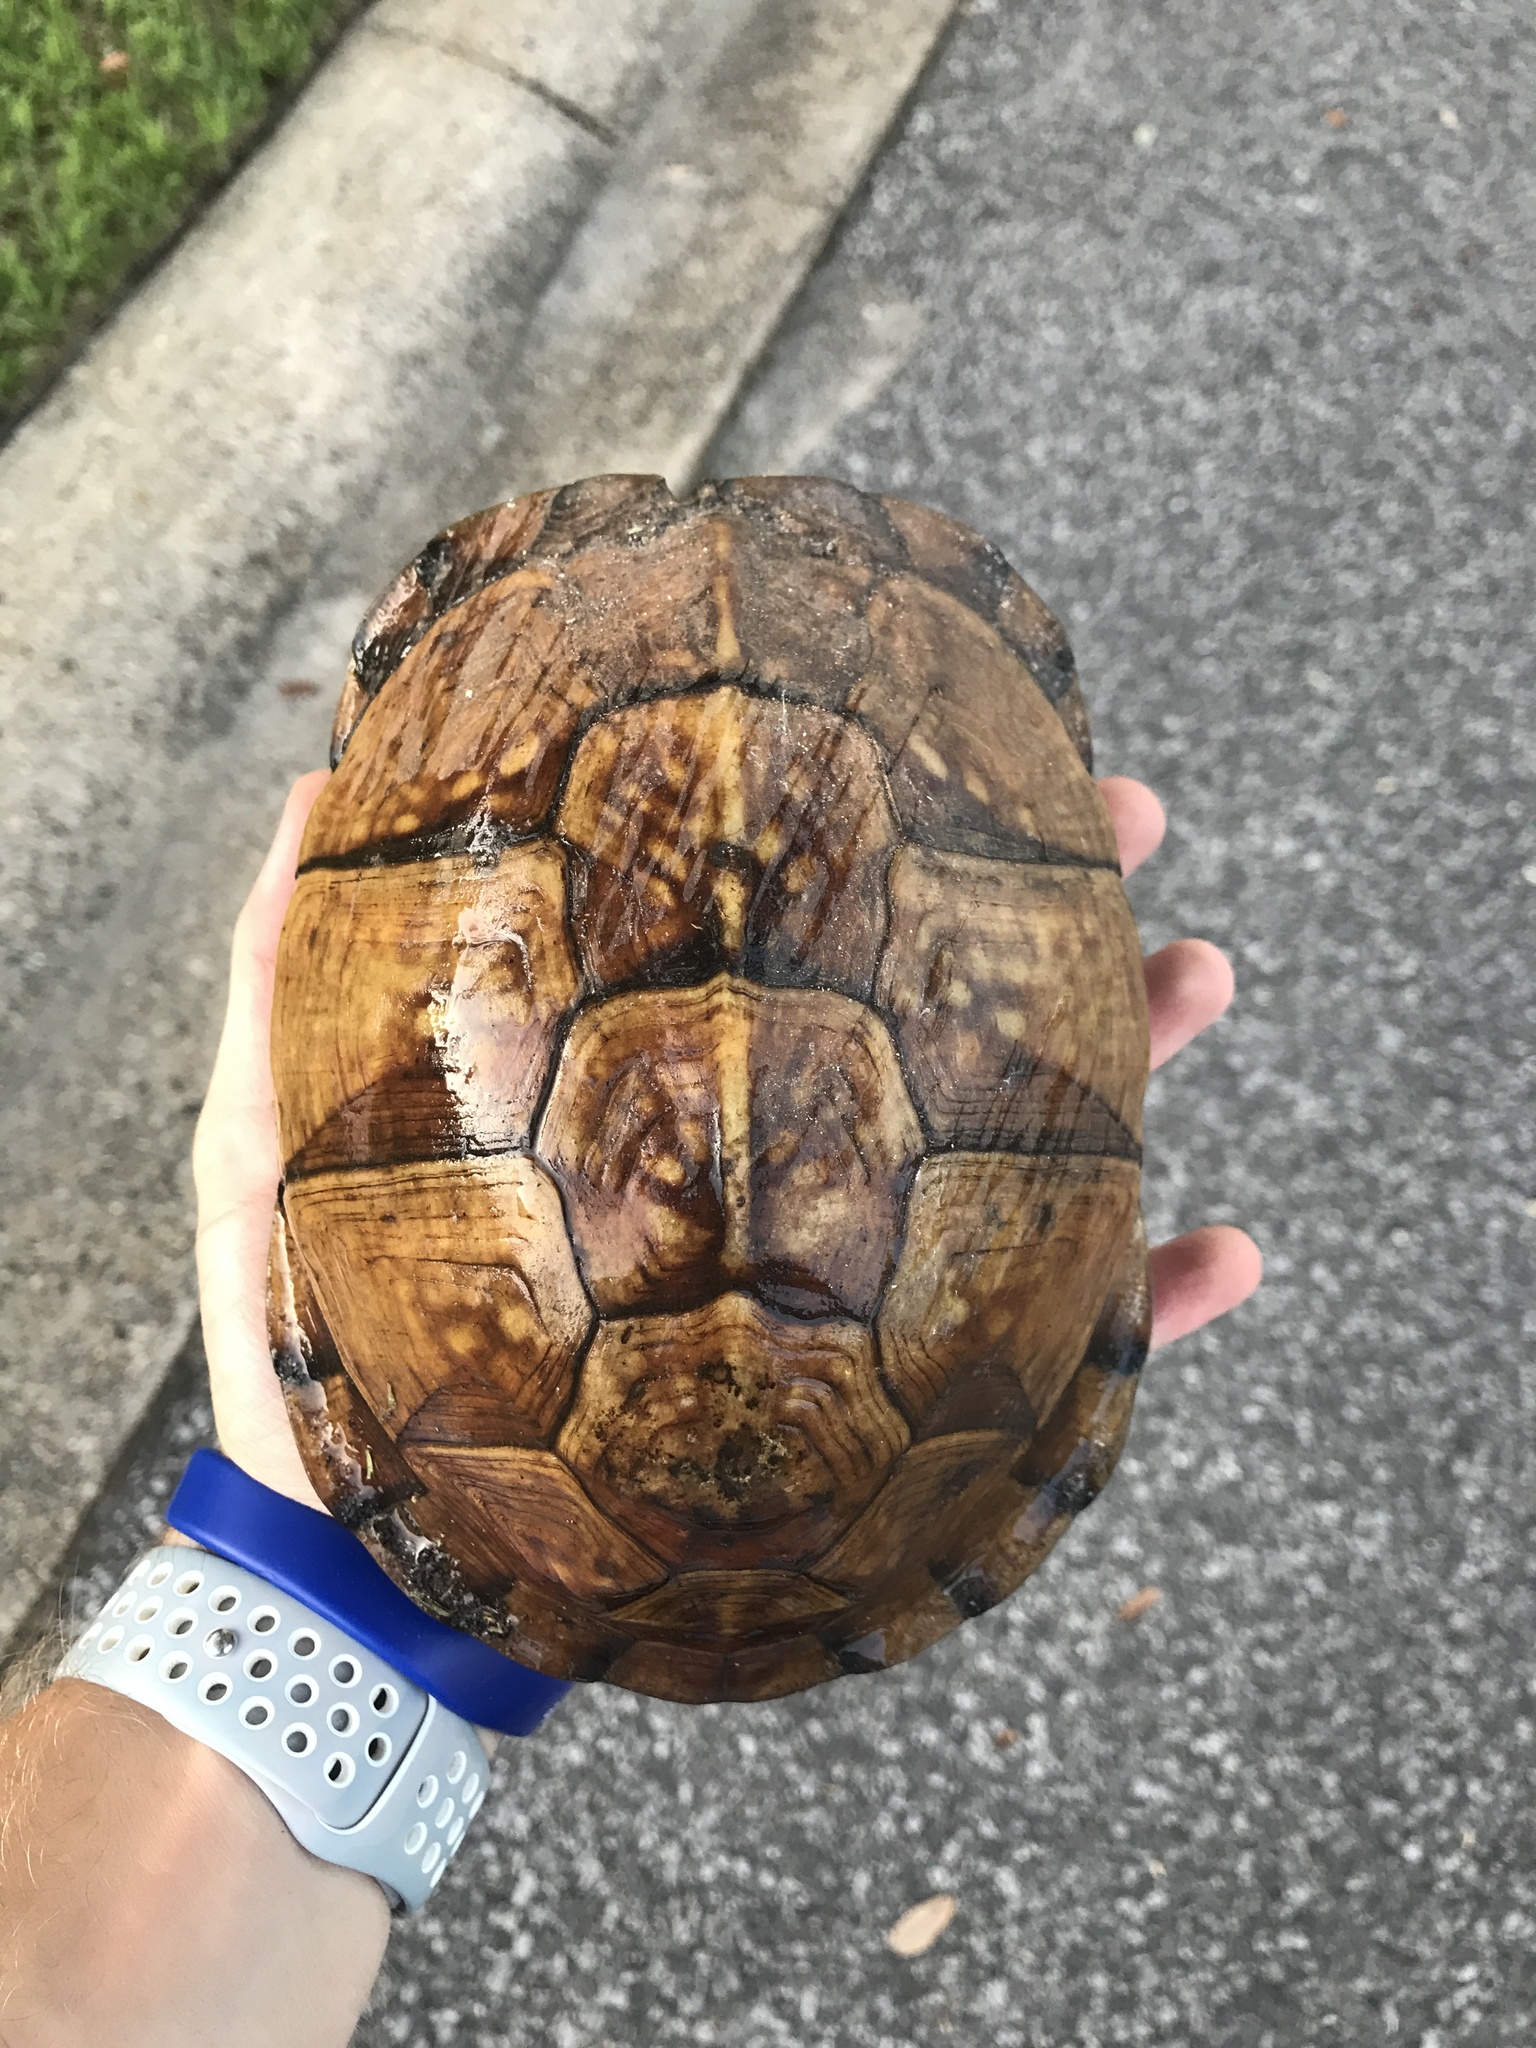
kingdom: Animalia
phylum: Chordata
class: Testudines
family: Emydidae
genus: Terrapene
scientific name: Terrapene carolina
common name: Common box turtle
